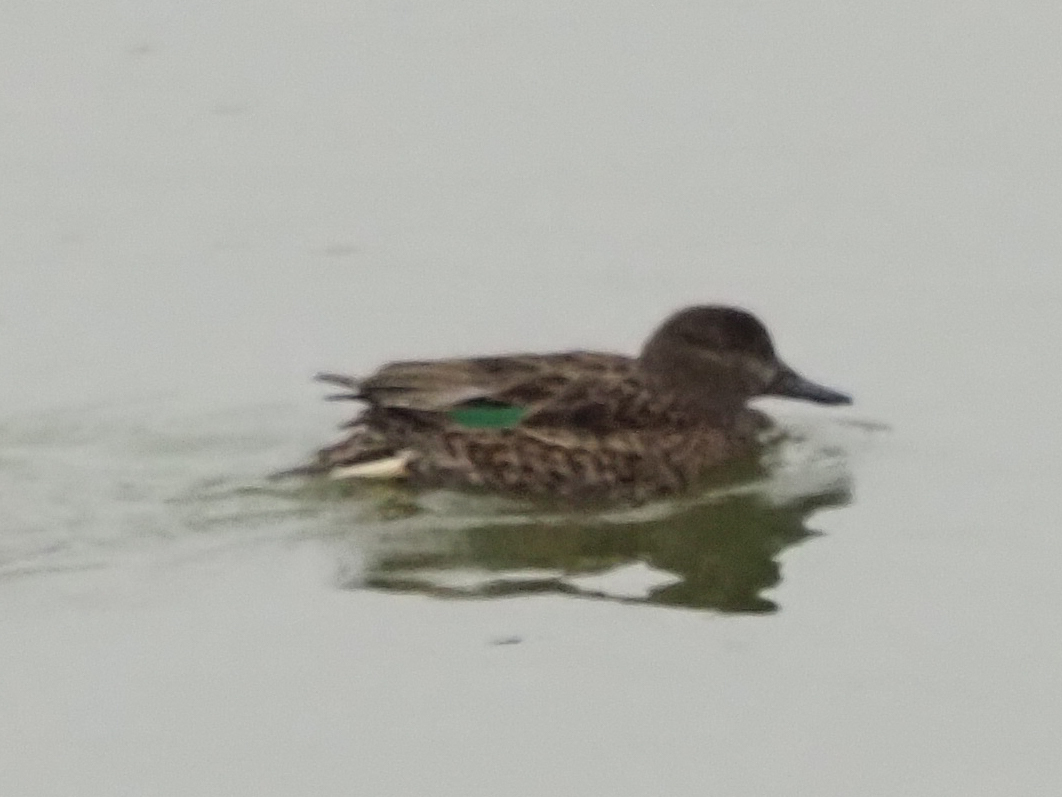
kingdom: Animalia
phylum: Chordata
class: Aves
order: Anseriformes
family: Anatidae
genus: Anas
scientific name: Anas crecca
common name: Eurasian teal
